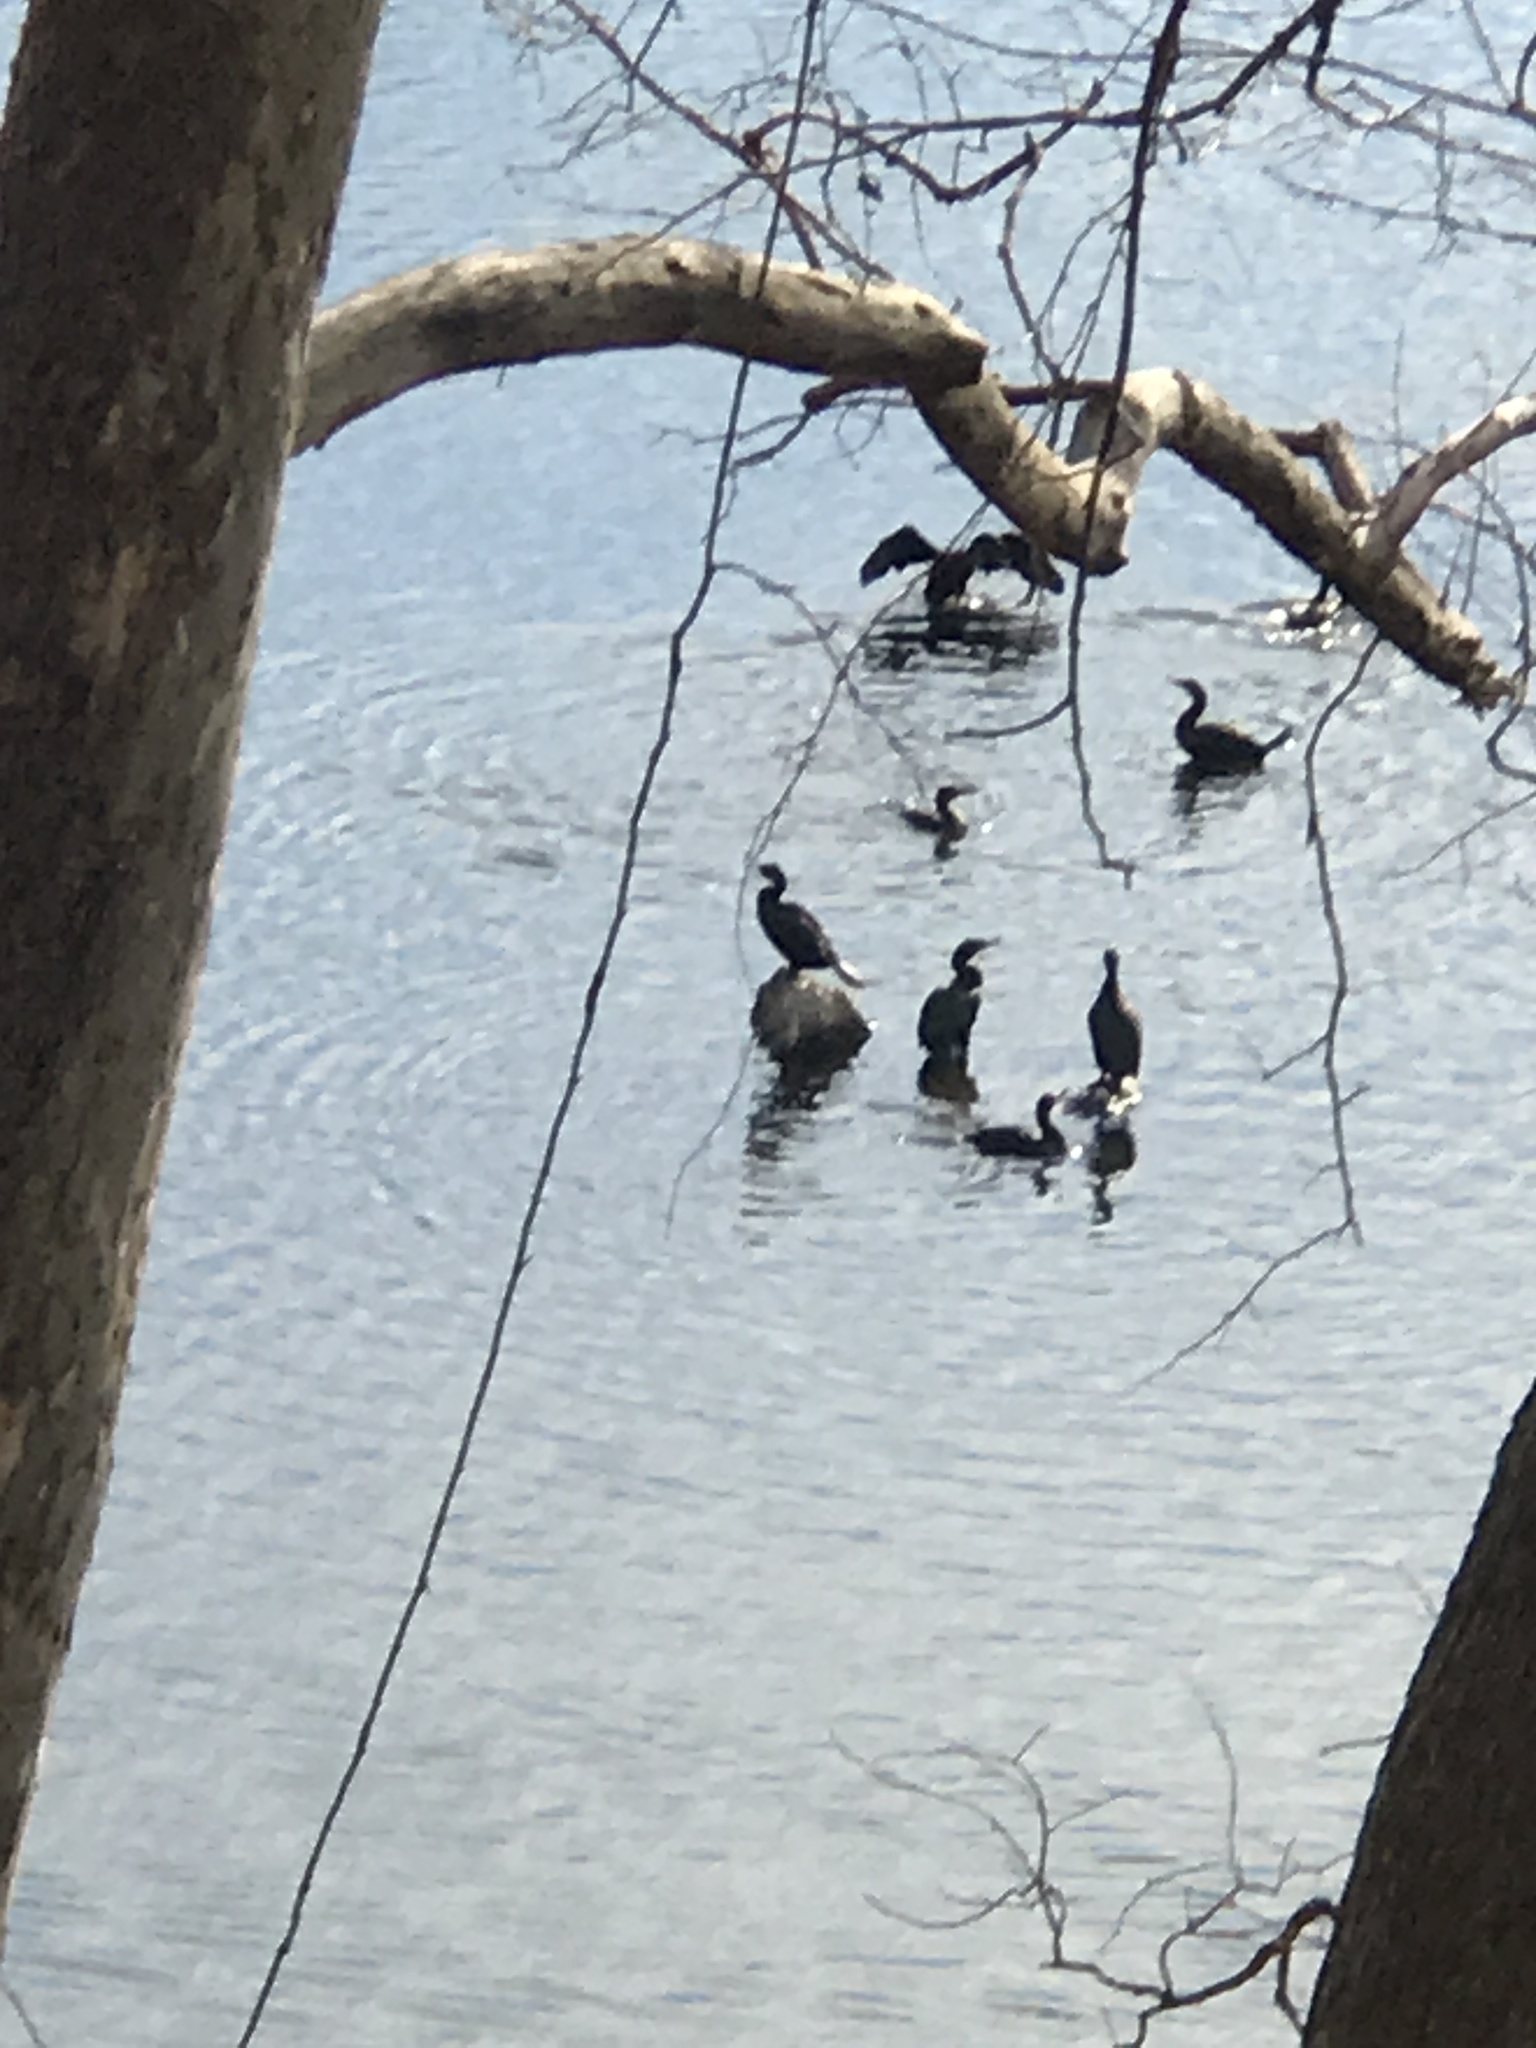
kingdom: Animalia
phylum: Chordata
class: Aves
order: Suliformes
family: Phalacrocoracidae
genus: Phalacrocorax
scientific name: Phalacrocorax auritus
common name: Double-crested cormorant
